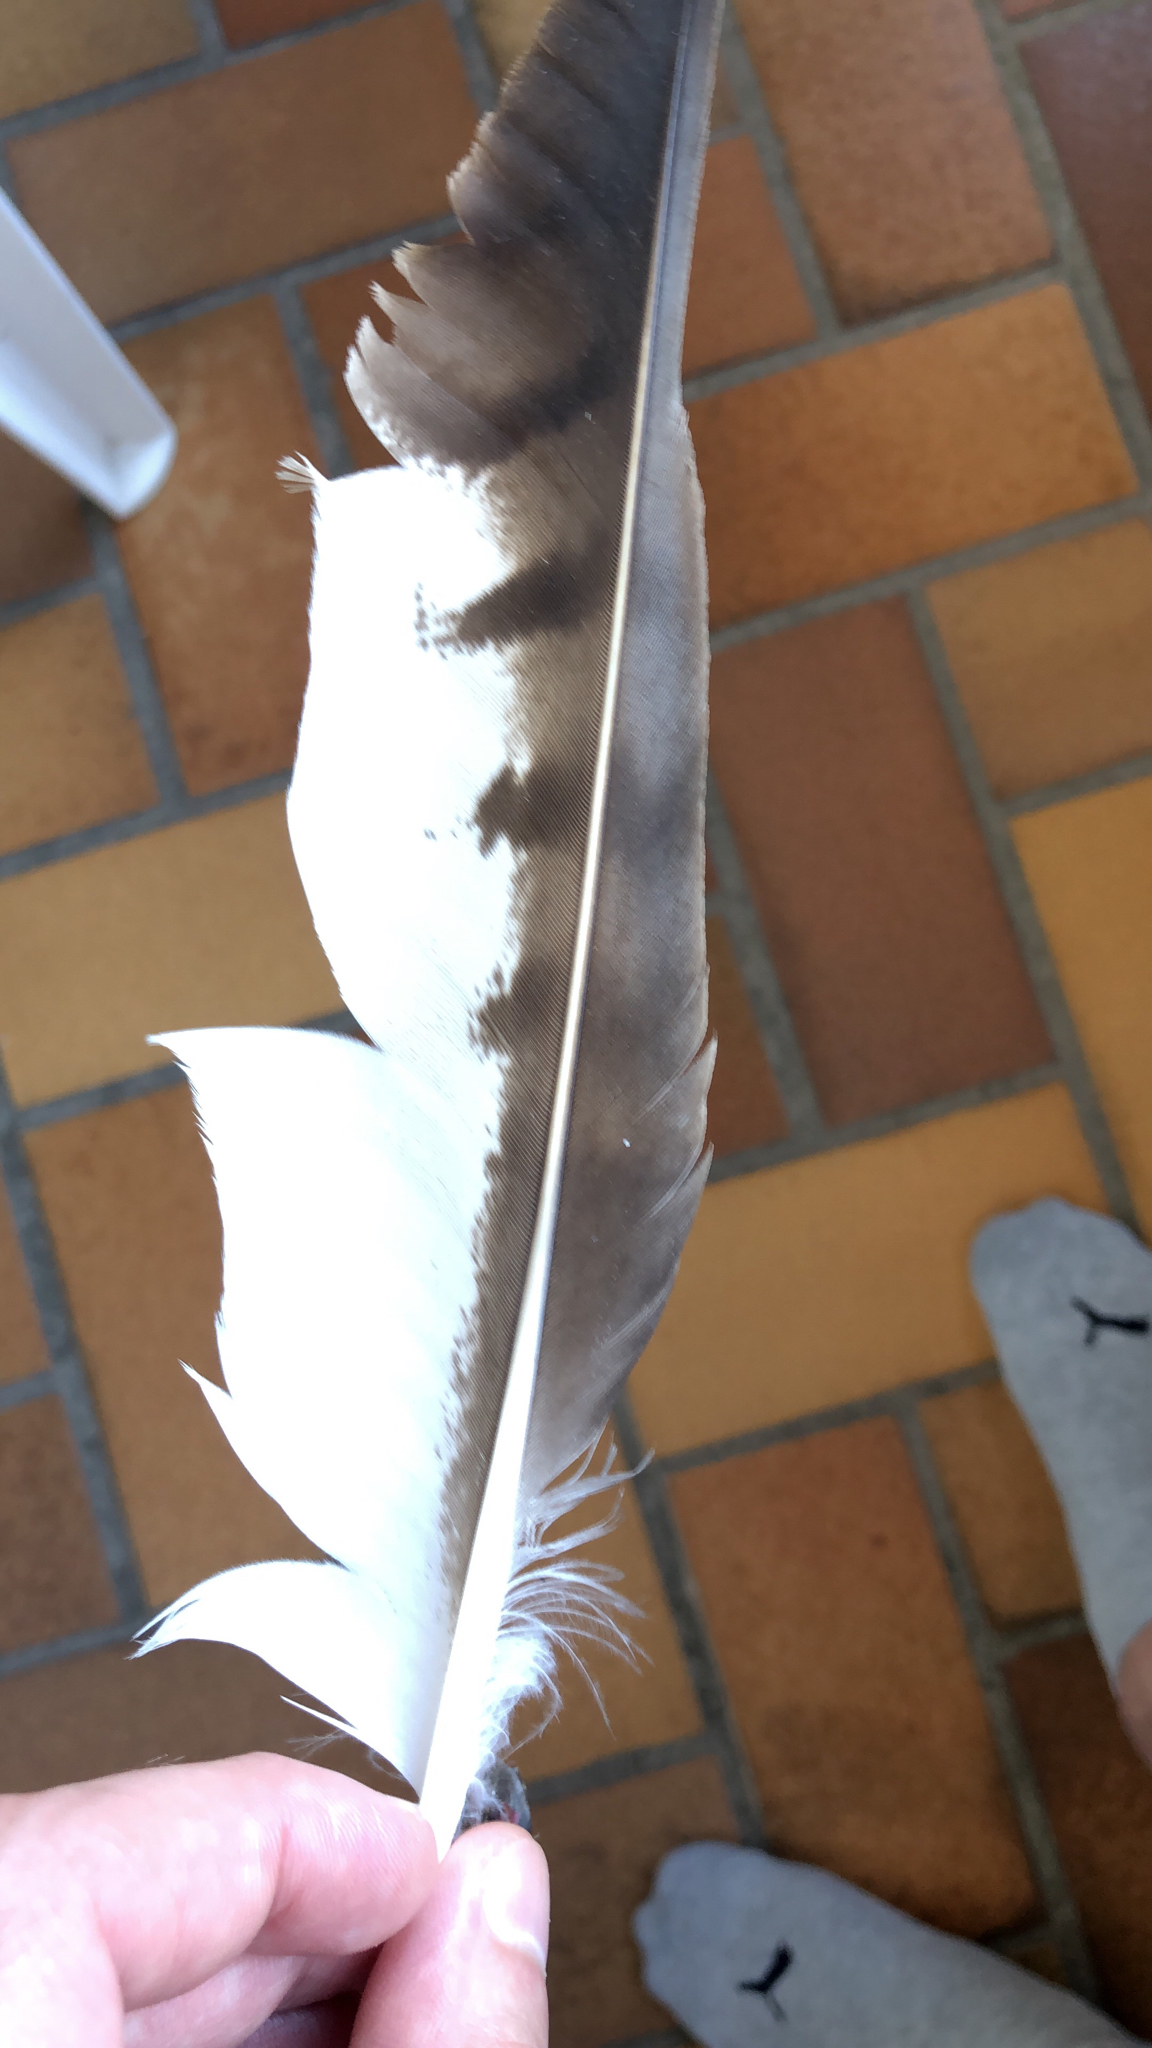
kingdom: Animalia
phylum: Chordata
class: Aves
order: Accipitriformes
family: Accipitridae
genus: Buteo
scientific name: Buteo buteo
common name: Common buzzard
